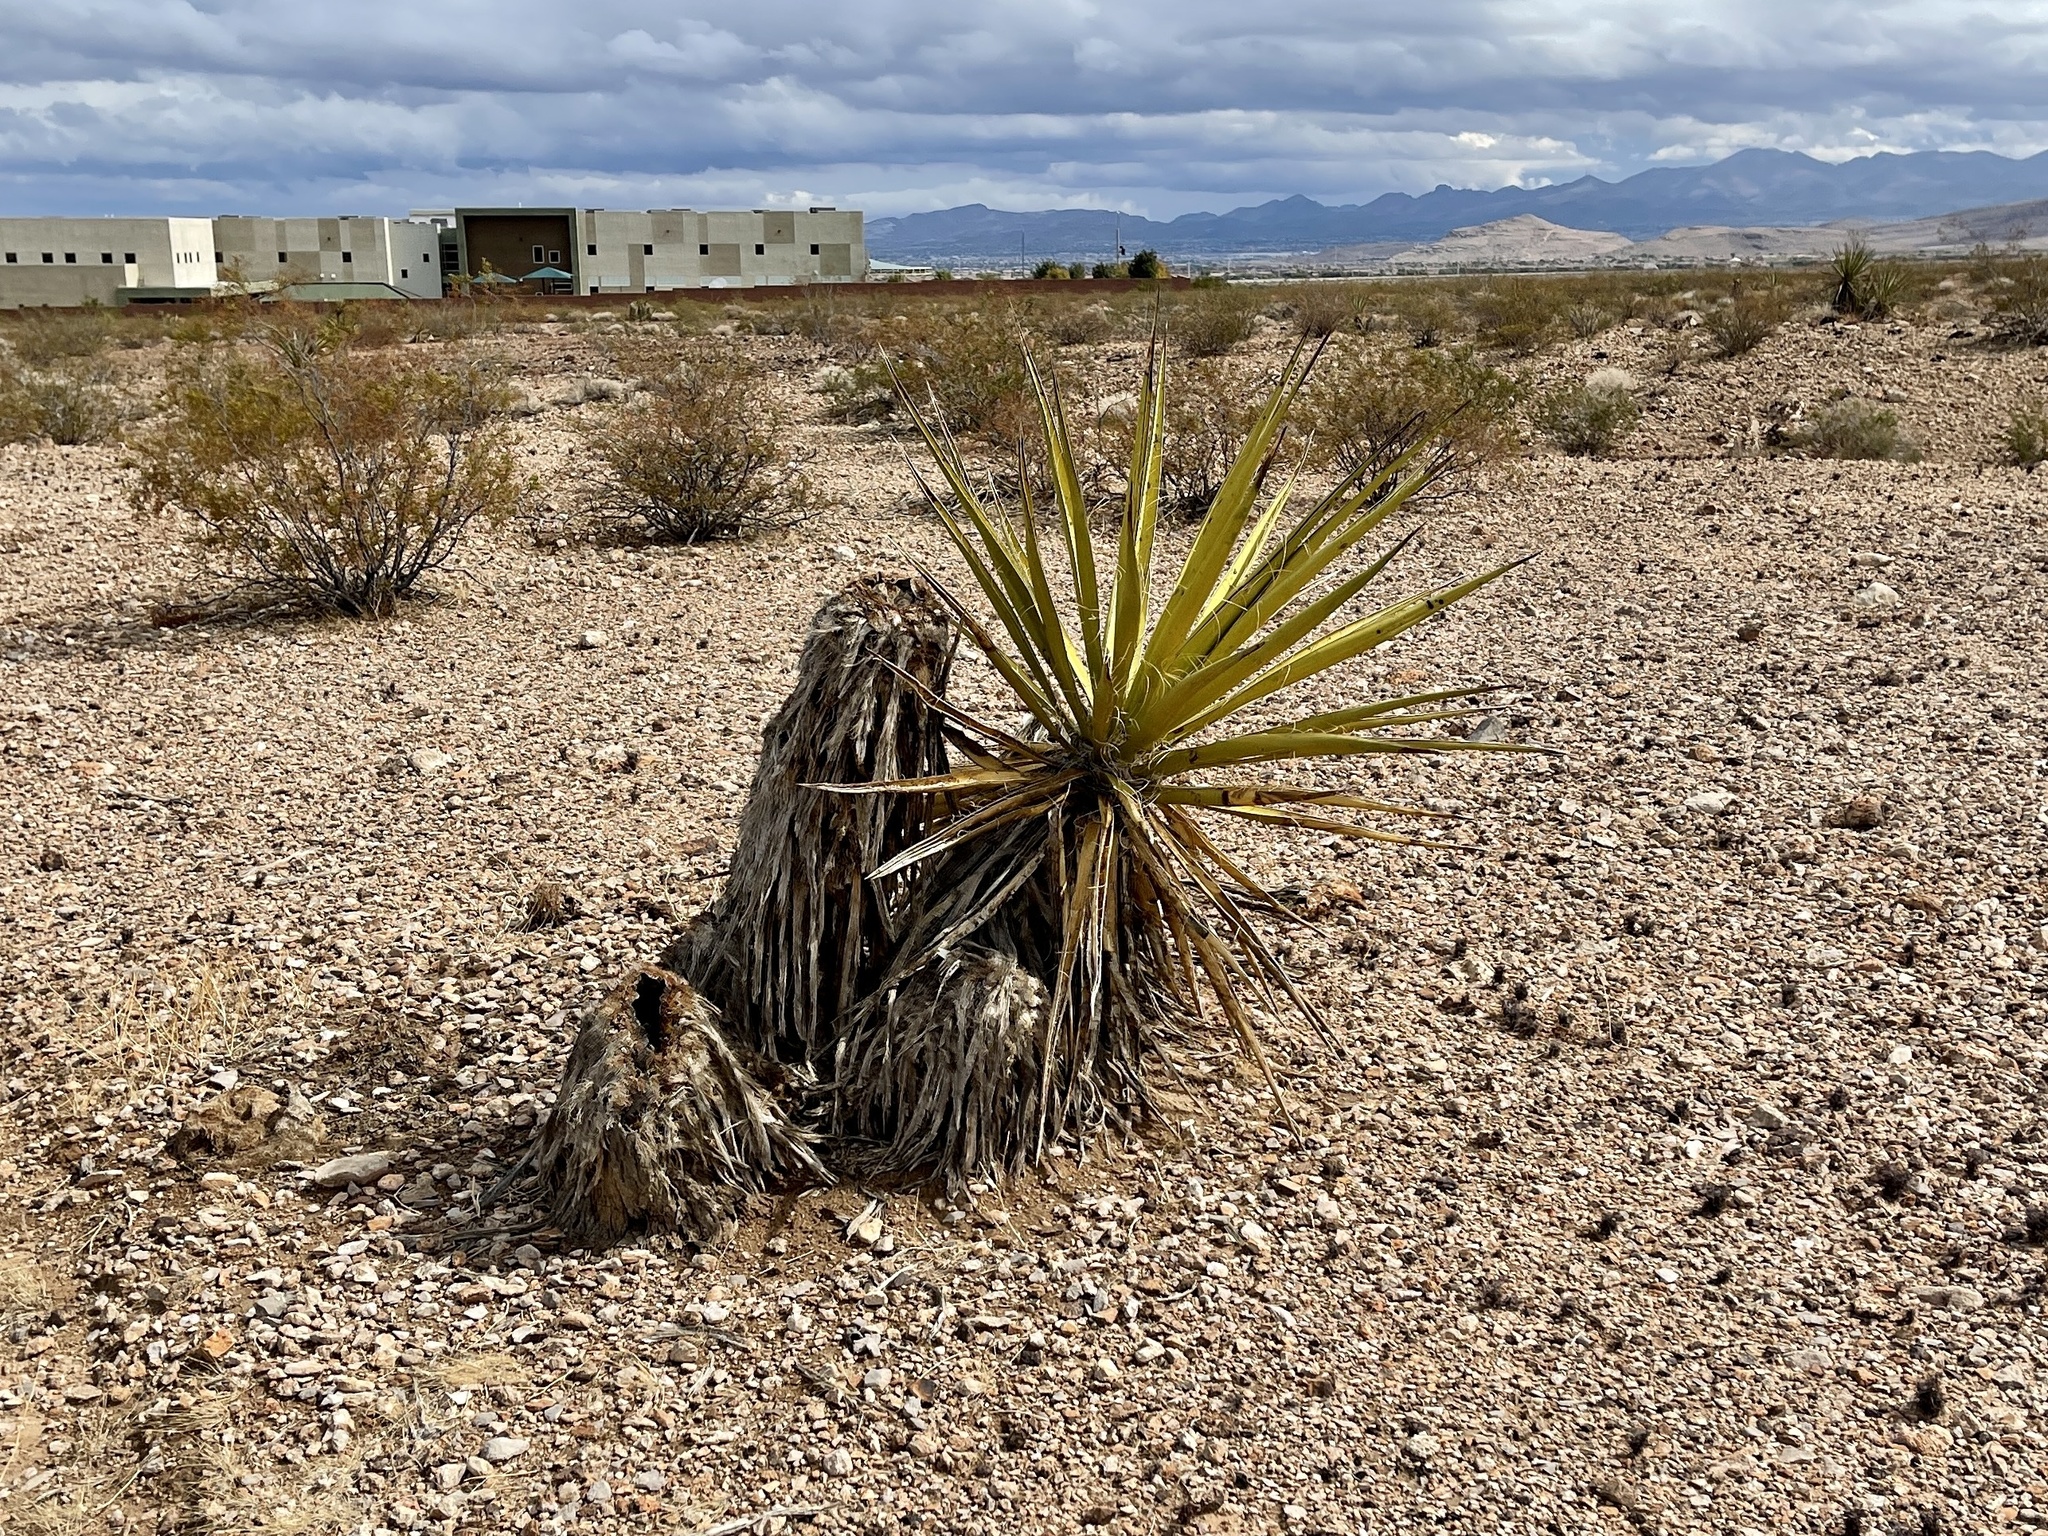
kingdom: Plantae
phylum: Tracheophyta
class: Liliopsida
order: Asparagales
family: Asparagaceae
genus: Yucca
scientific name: Yucca schidigera
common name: Mojave yucca
